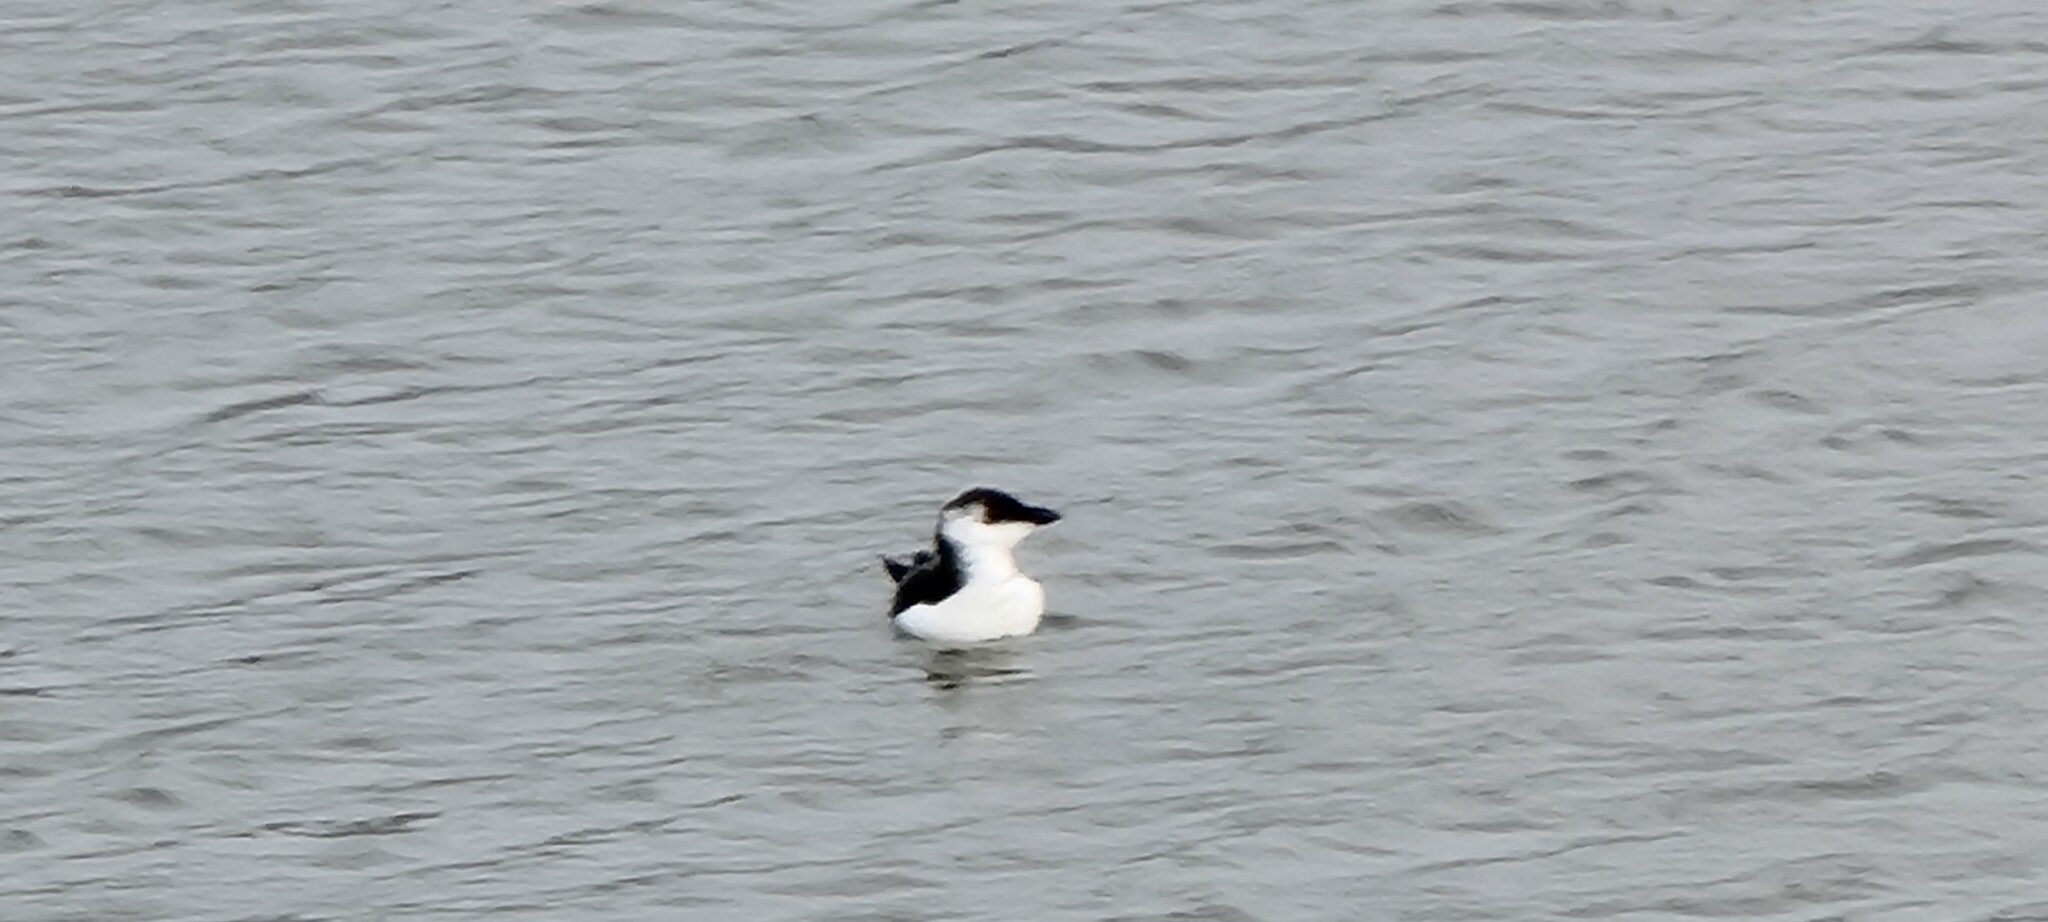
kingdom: Animalia
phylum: Chordata
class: Aves
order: Charadriiformes
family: Alcidae
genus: Alca
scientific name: Alca torda
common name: Razorbill
